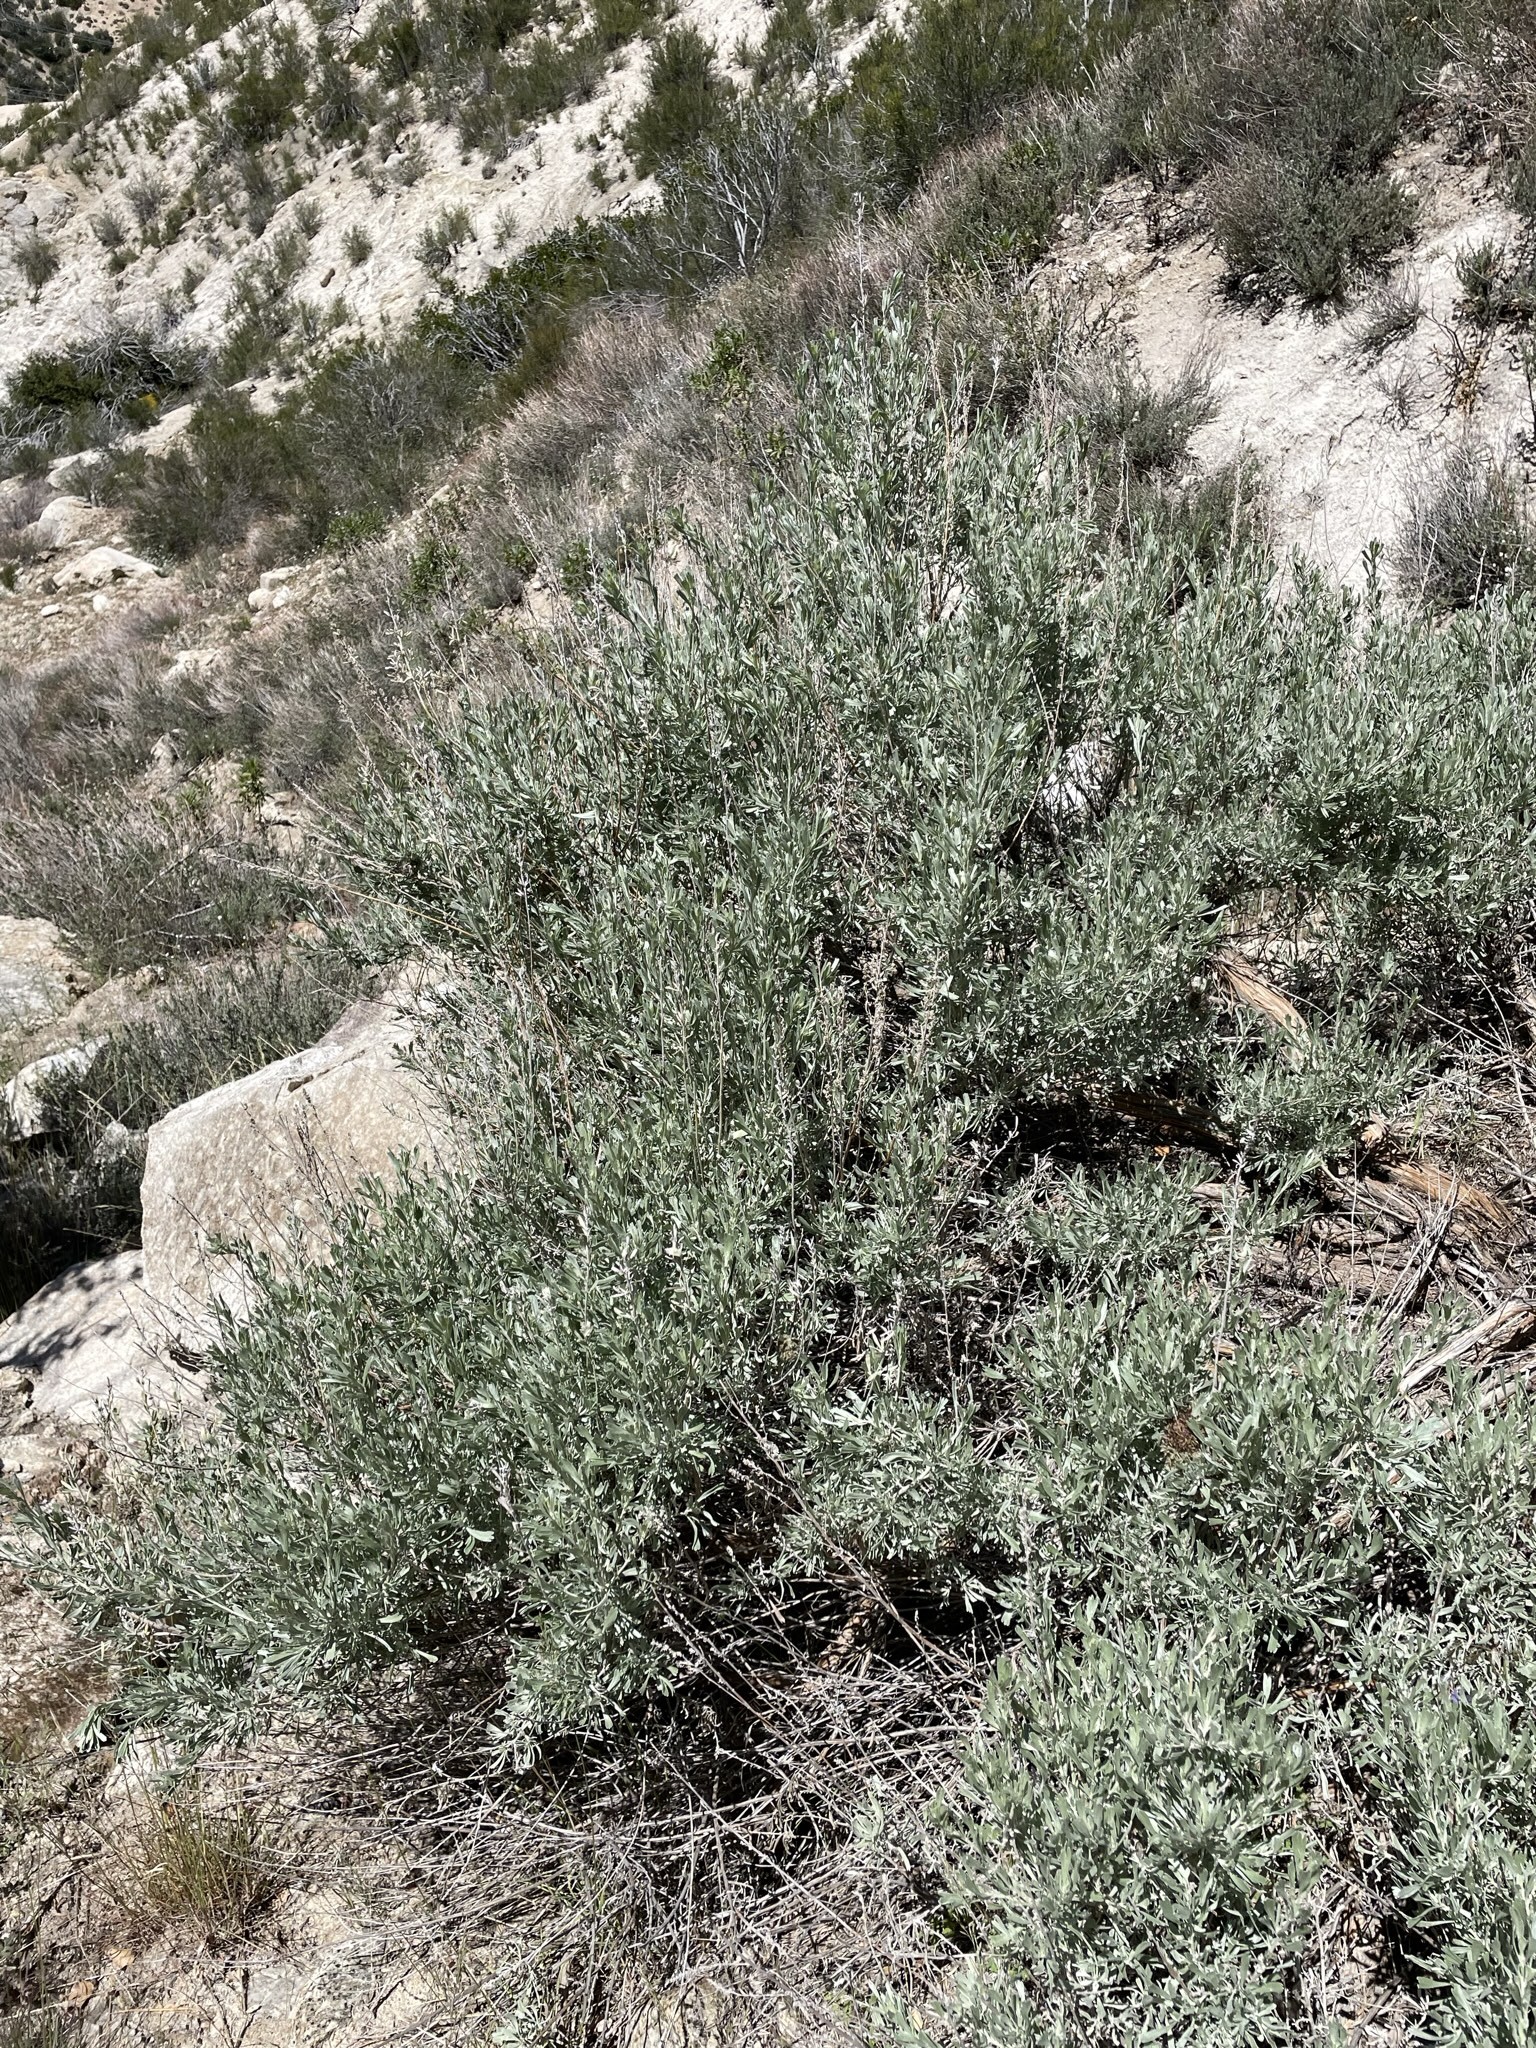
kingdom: Plantae
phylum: Tracheophyta
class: Magnoliopsida
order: Asterales
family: Asteraceae
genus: Artemisia
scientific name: Artemisia tridentata
